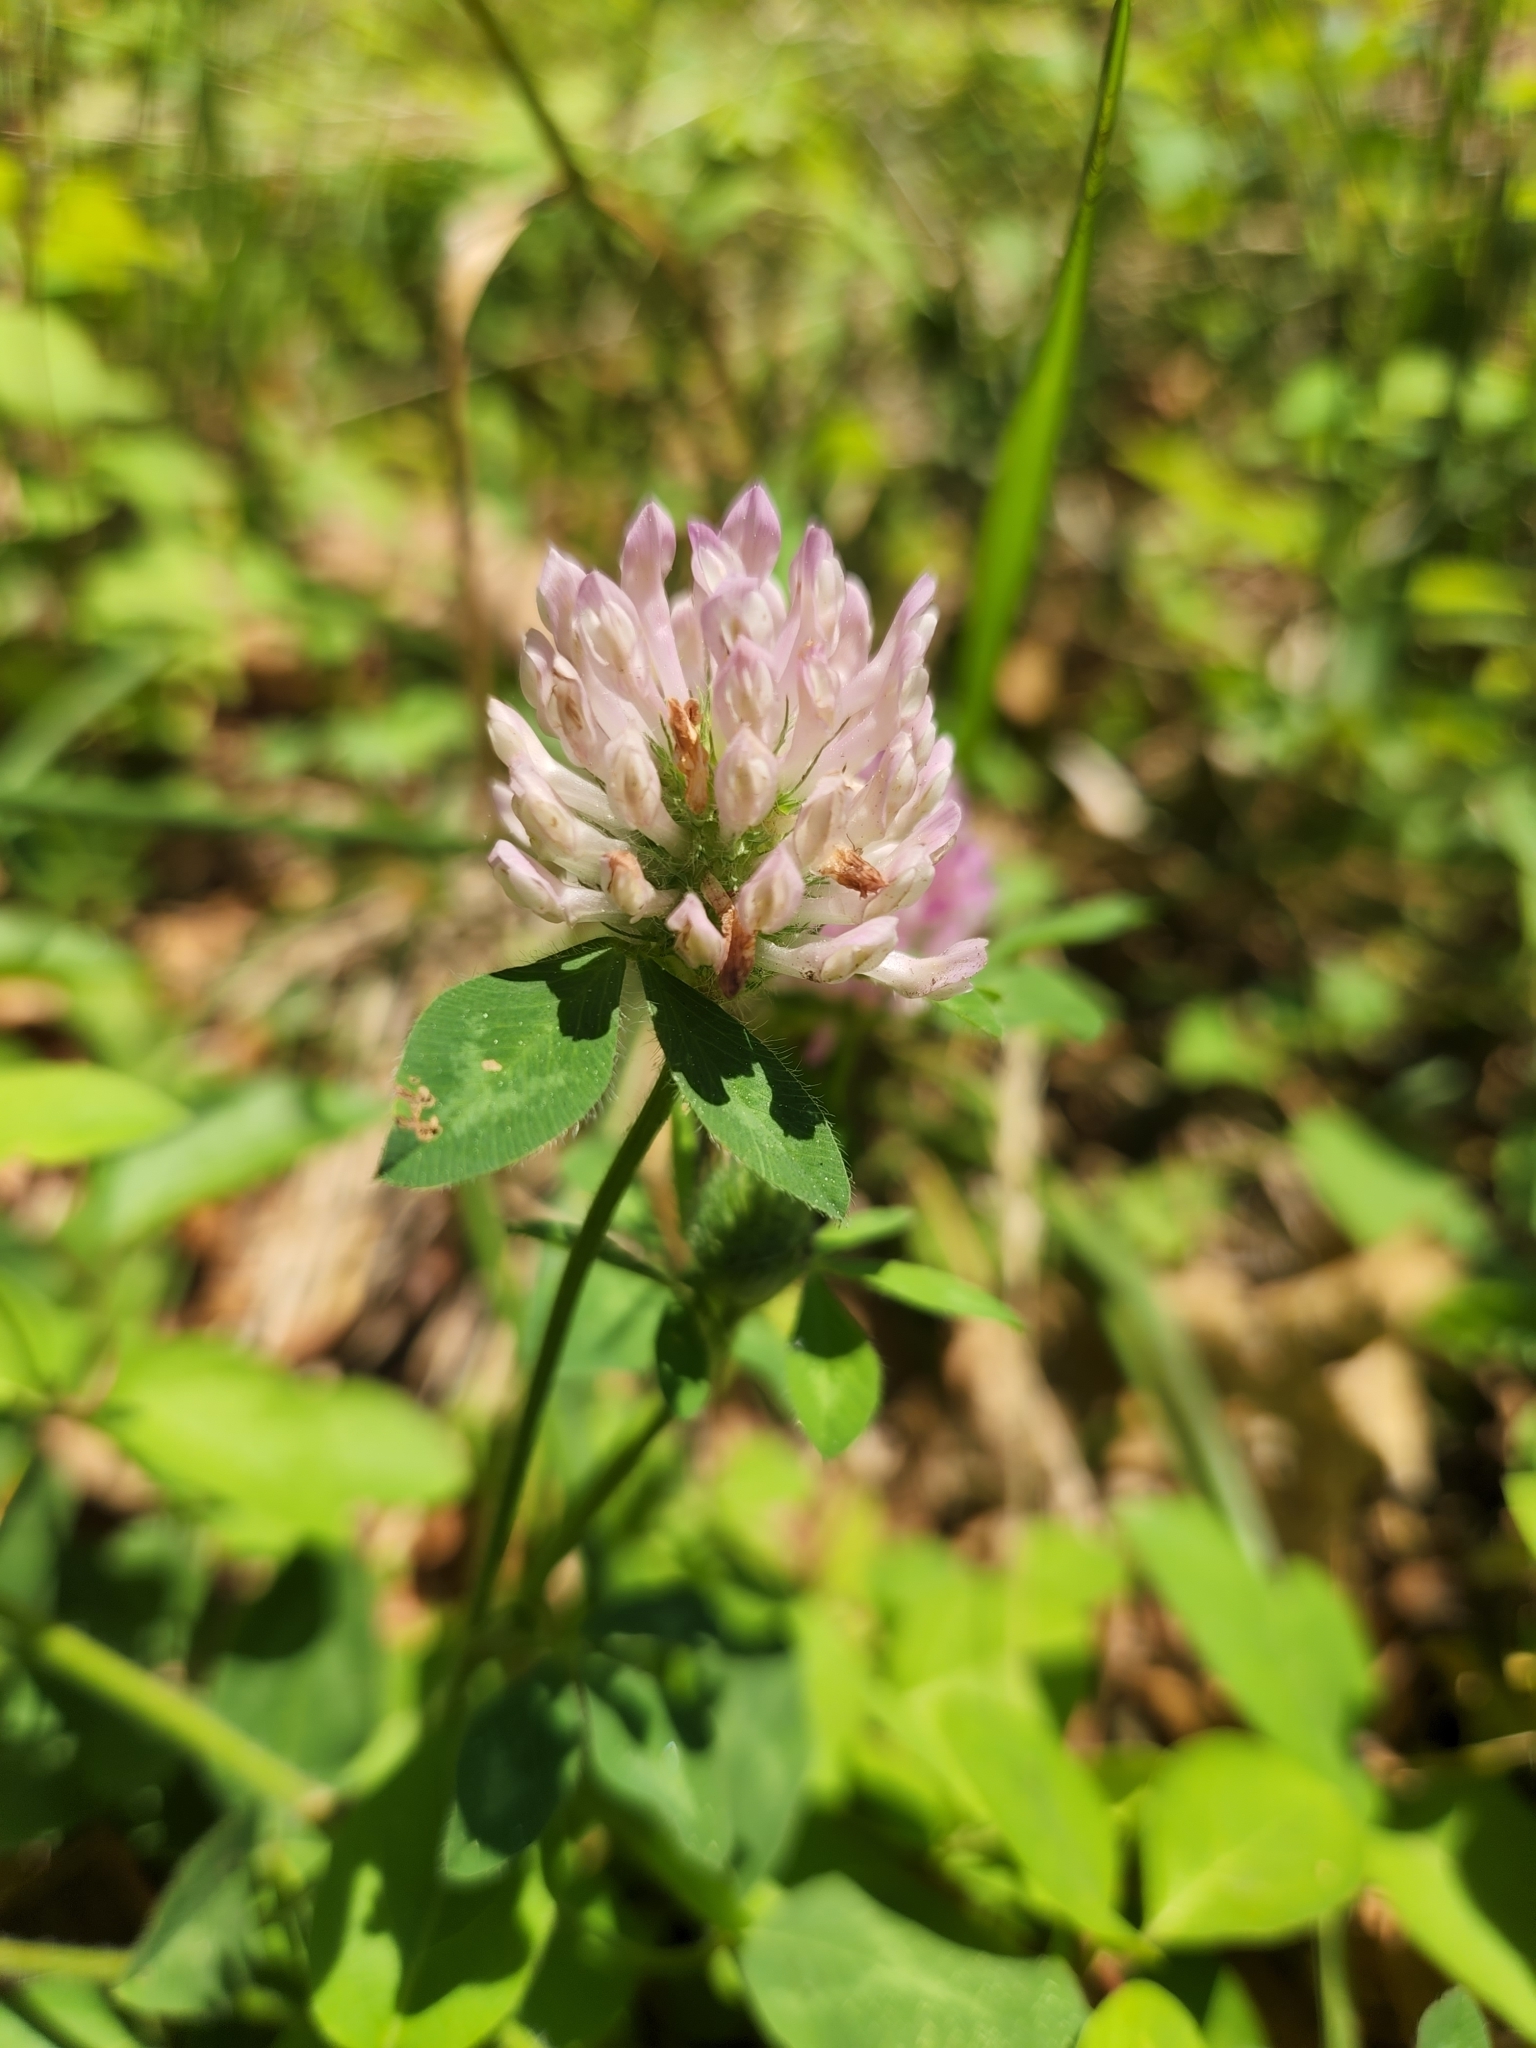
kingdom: Plantae
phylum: Tracheophyta
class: Magnoliopsida
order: Fabales
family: Fabaceae
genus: Trifolium
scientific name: Trifolium pratense
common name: Red clover
